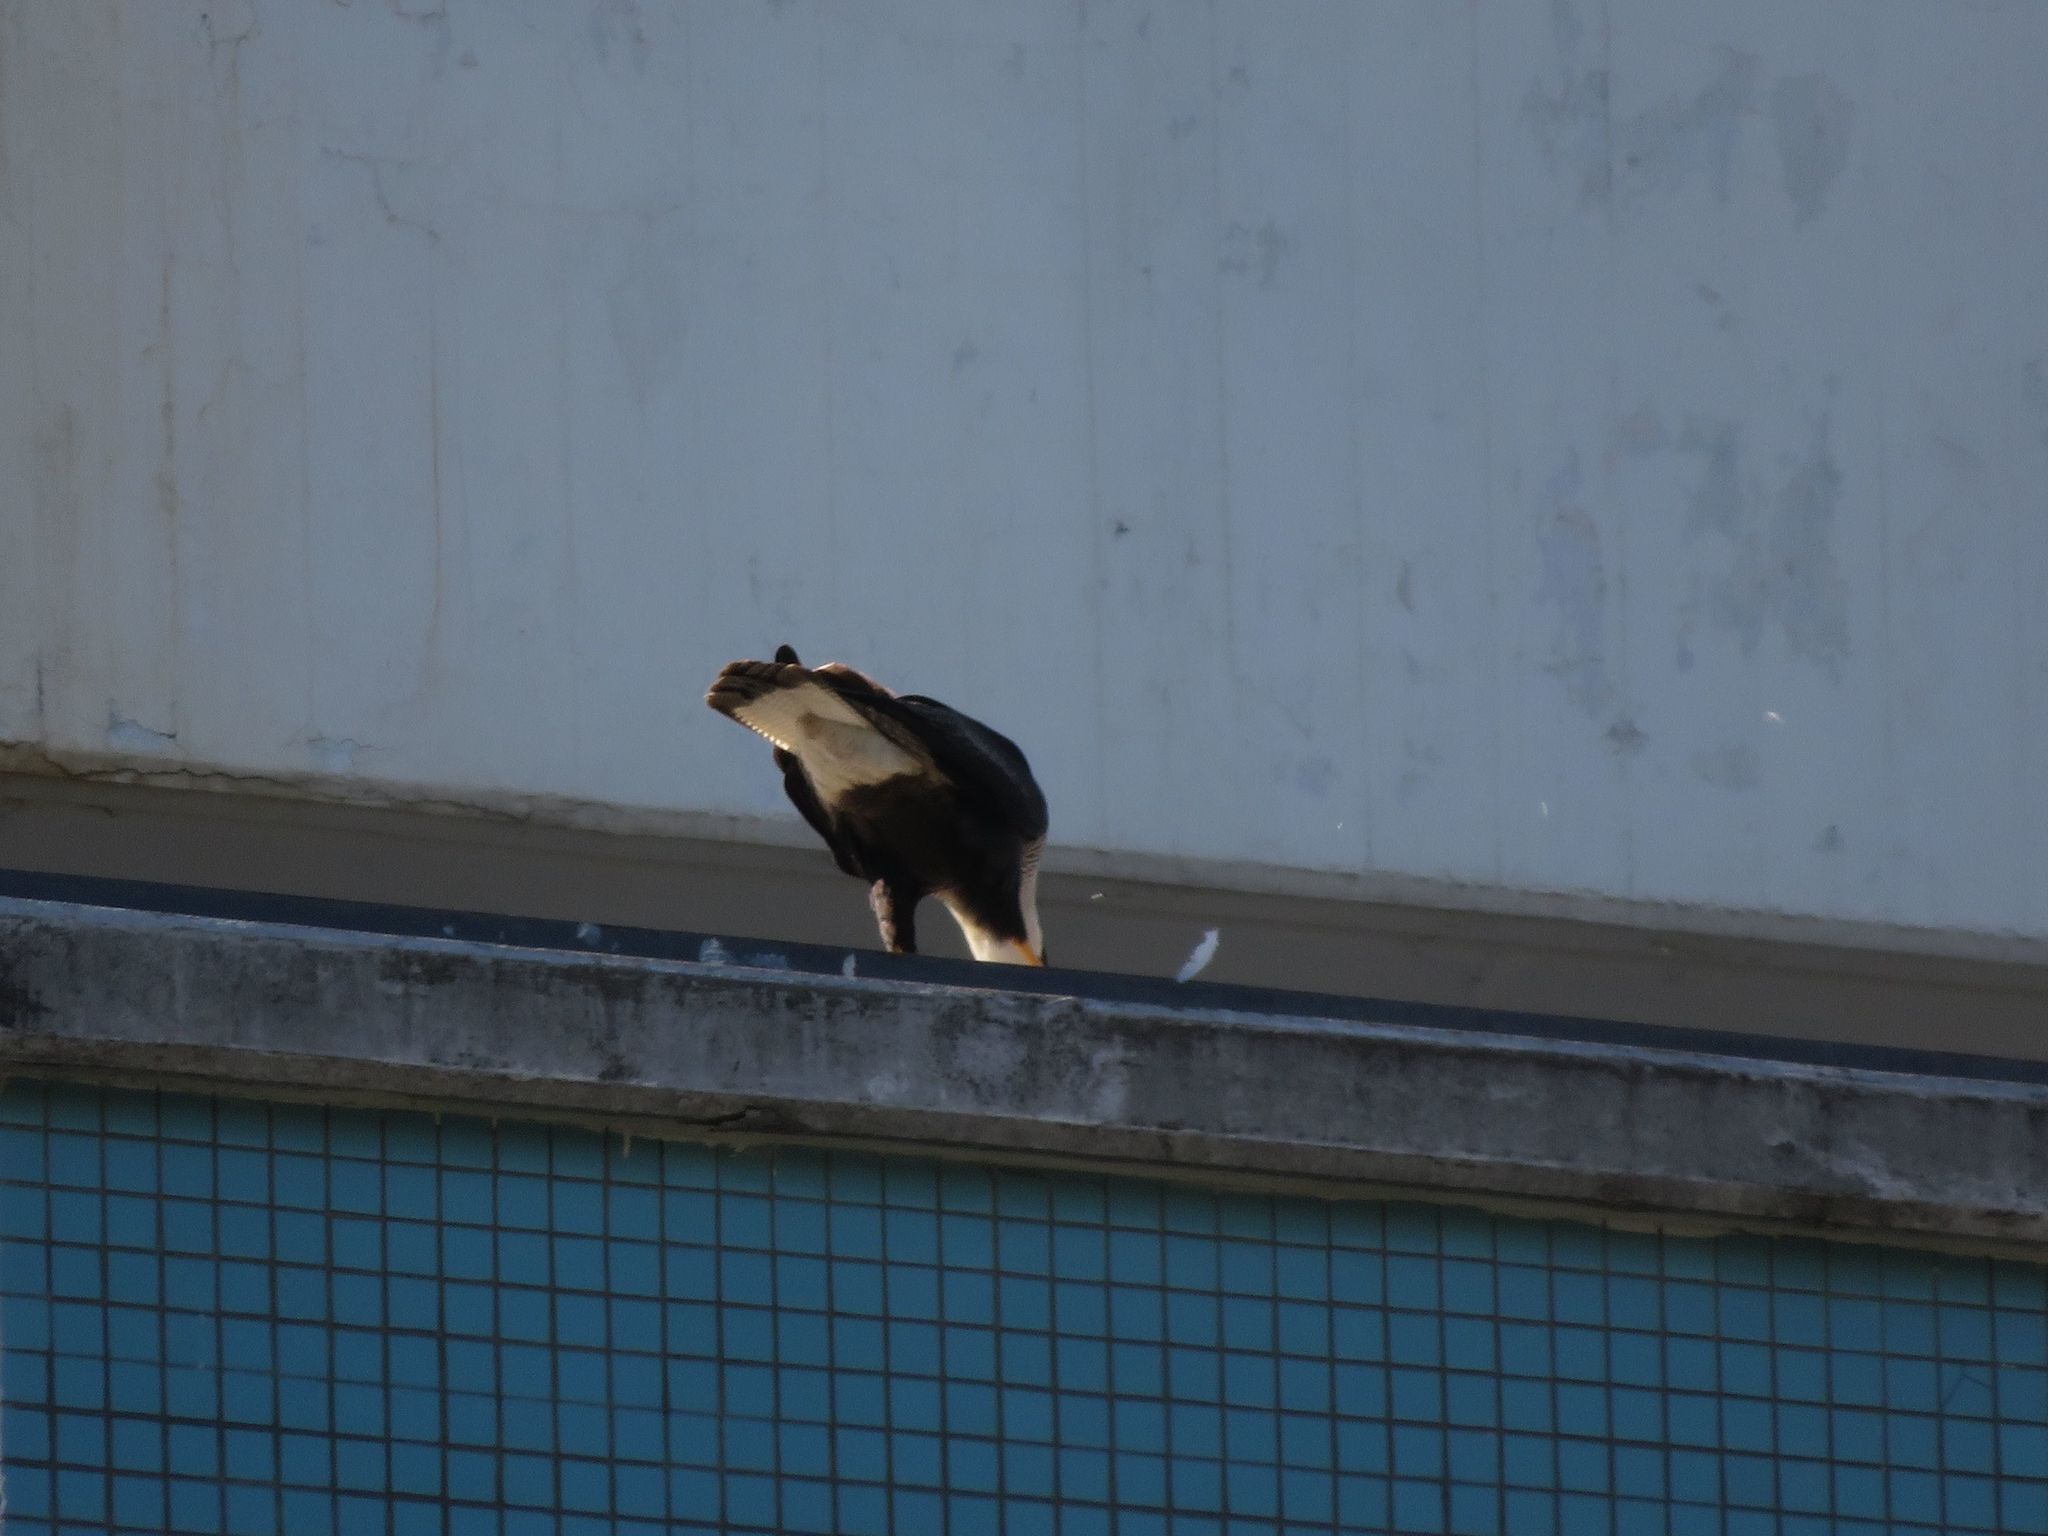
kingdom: Animalia
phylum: Chordata
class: Aves
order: Falconiformes
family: Falconidae
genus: Caracara
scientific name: Caracara plancus
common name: Southern caracara
